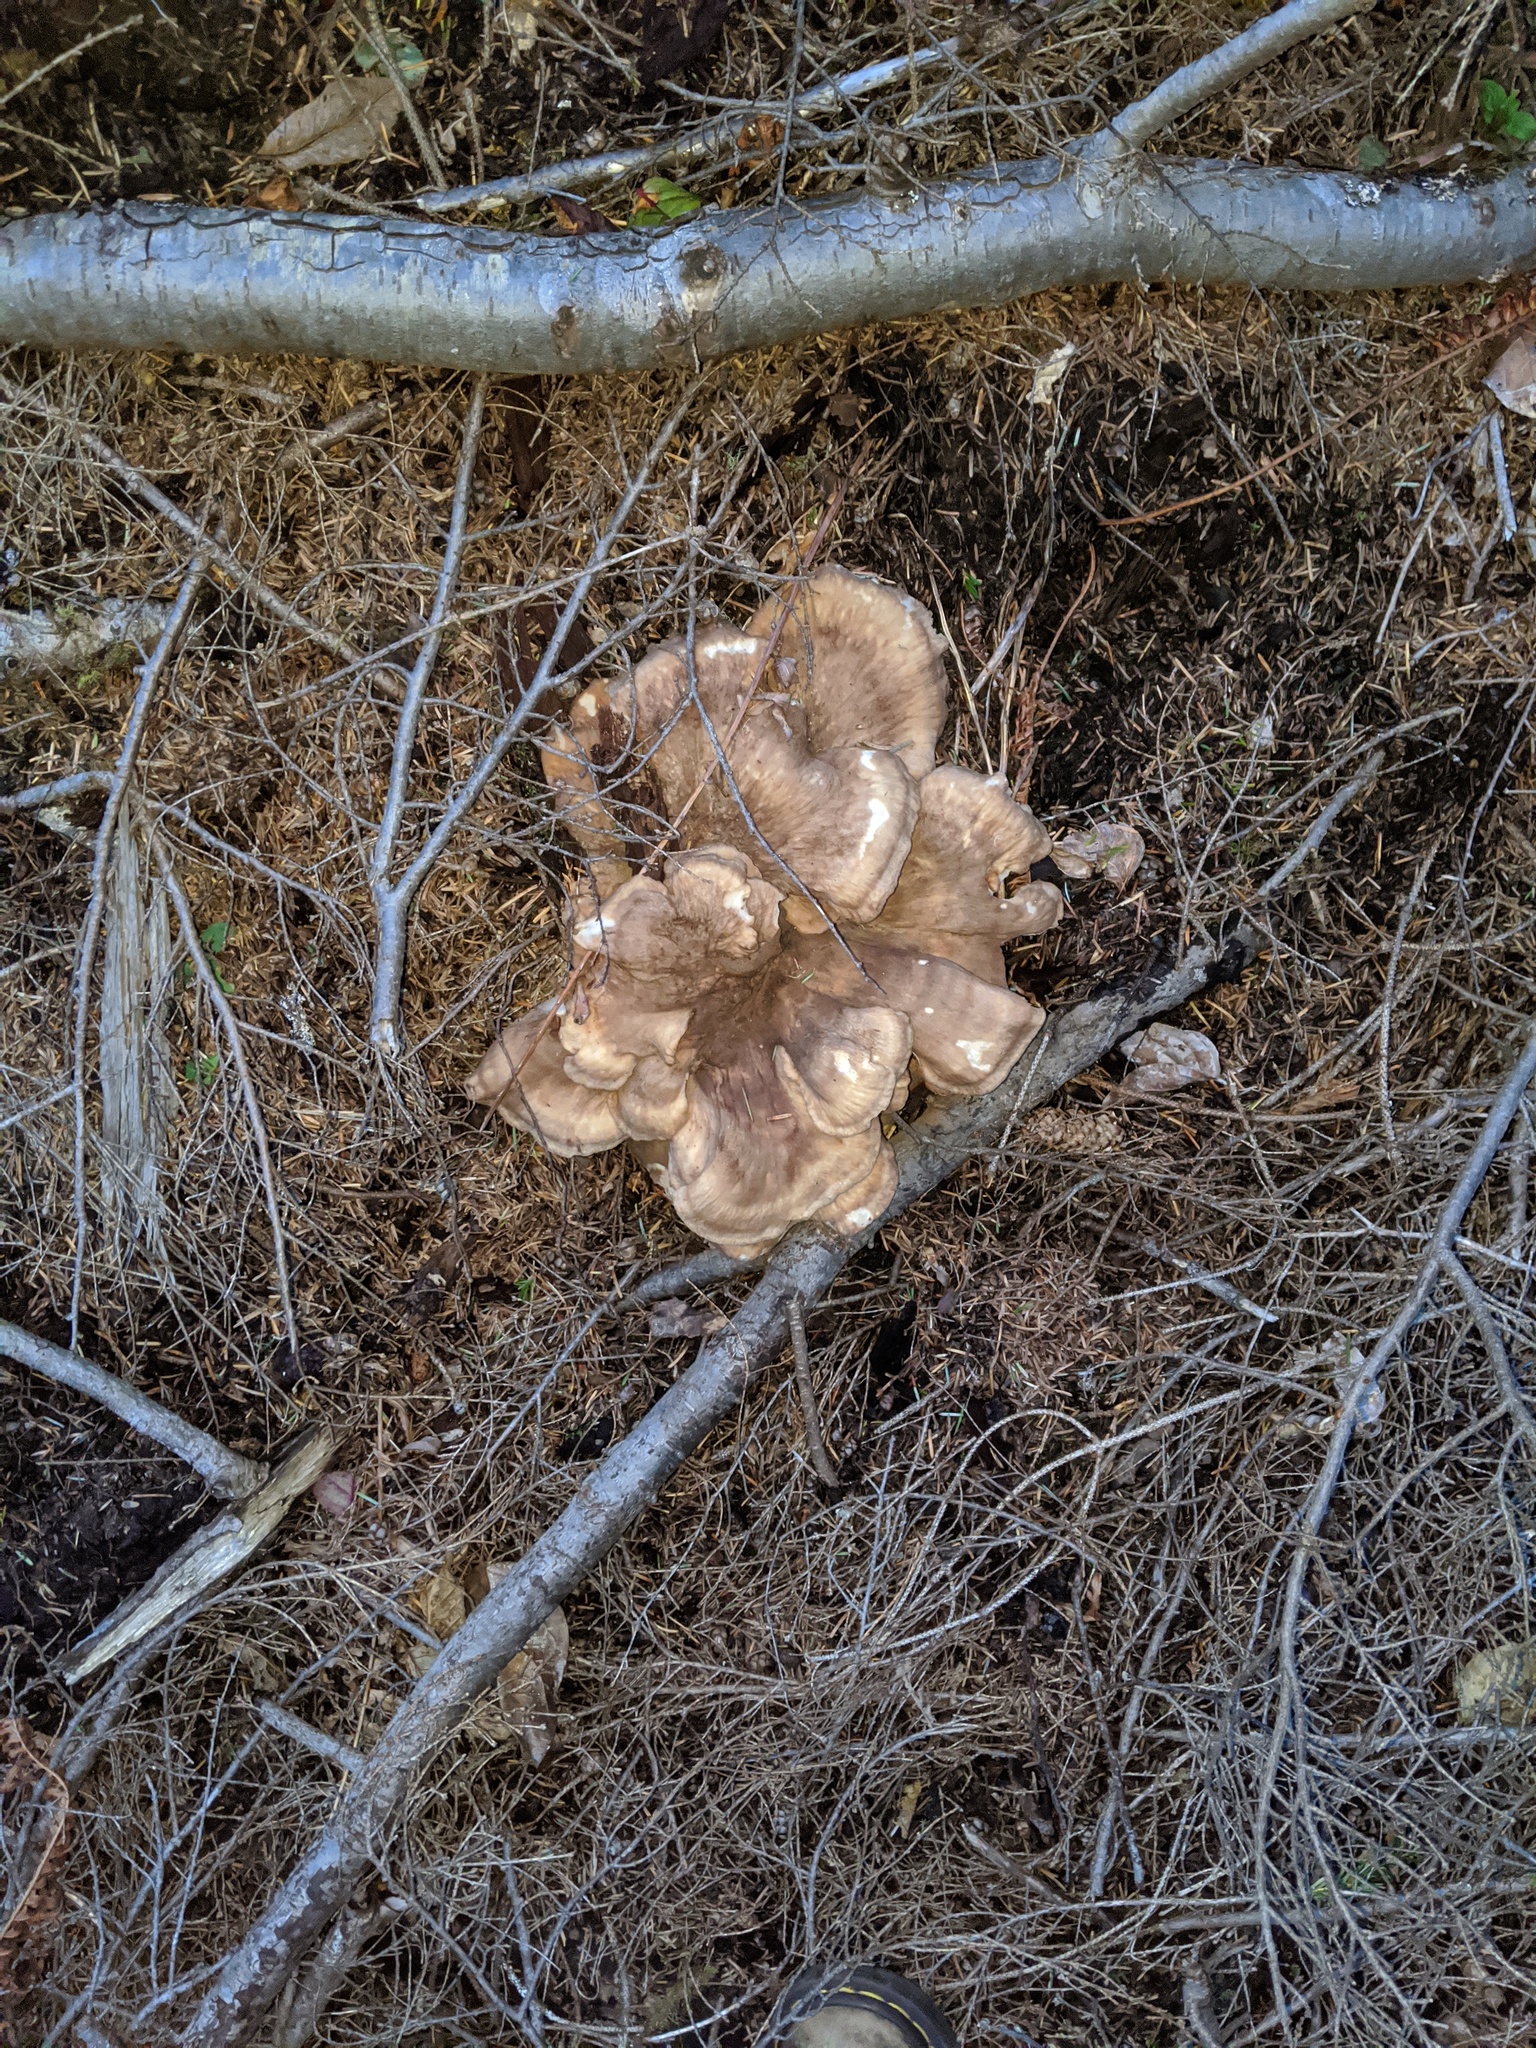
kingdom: Fungi
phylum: Basidiomycota
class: Agaricomycetes
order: Russulales
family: Bondarzewiaceae
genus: Bondarzewia
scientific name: Bondarzewia occidentalis
